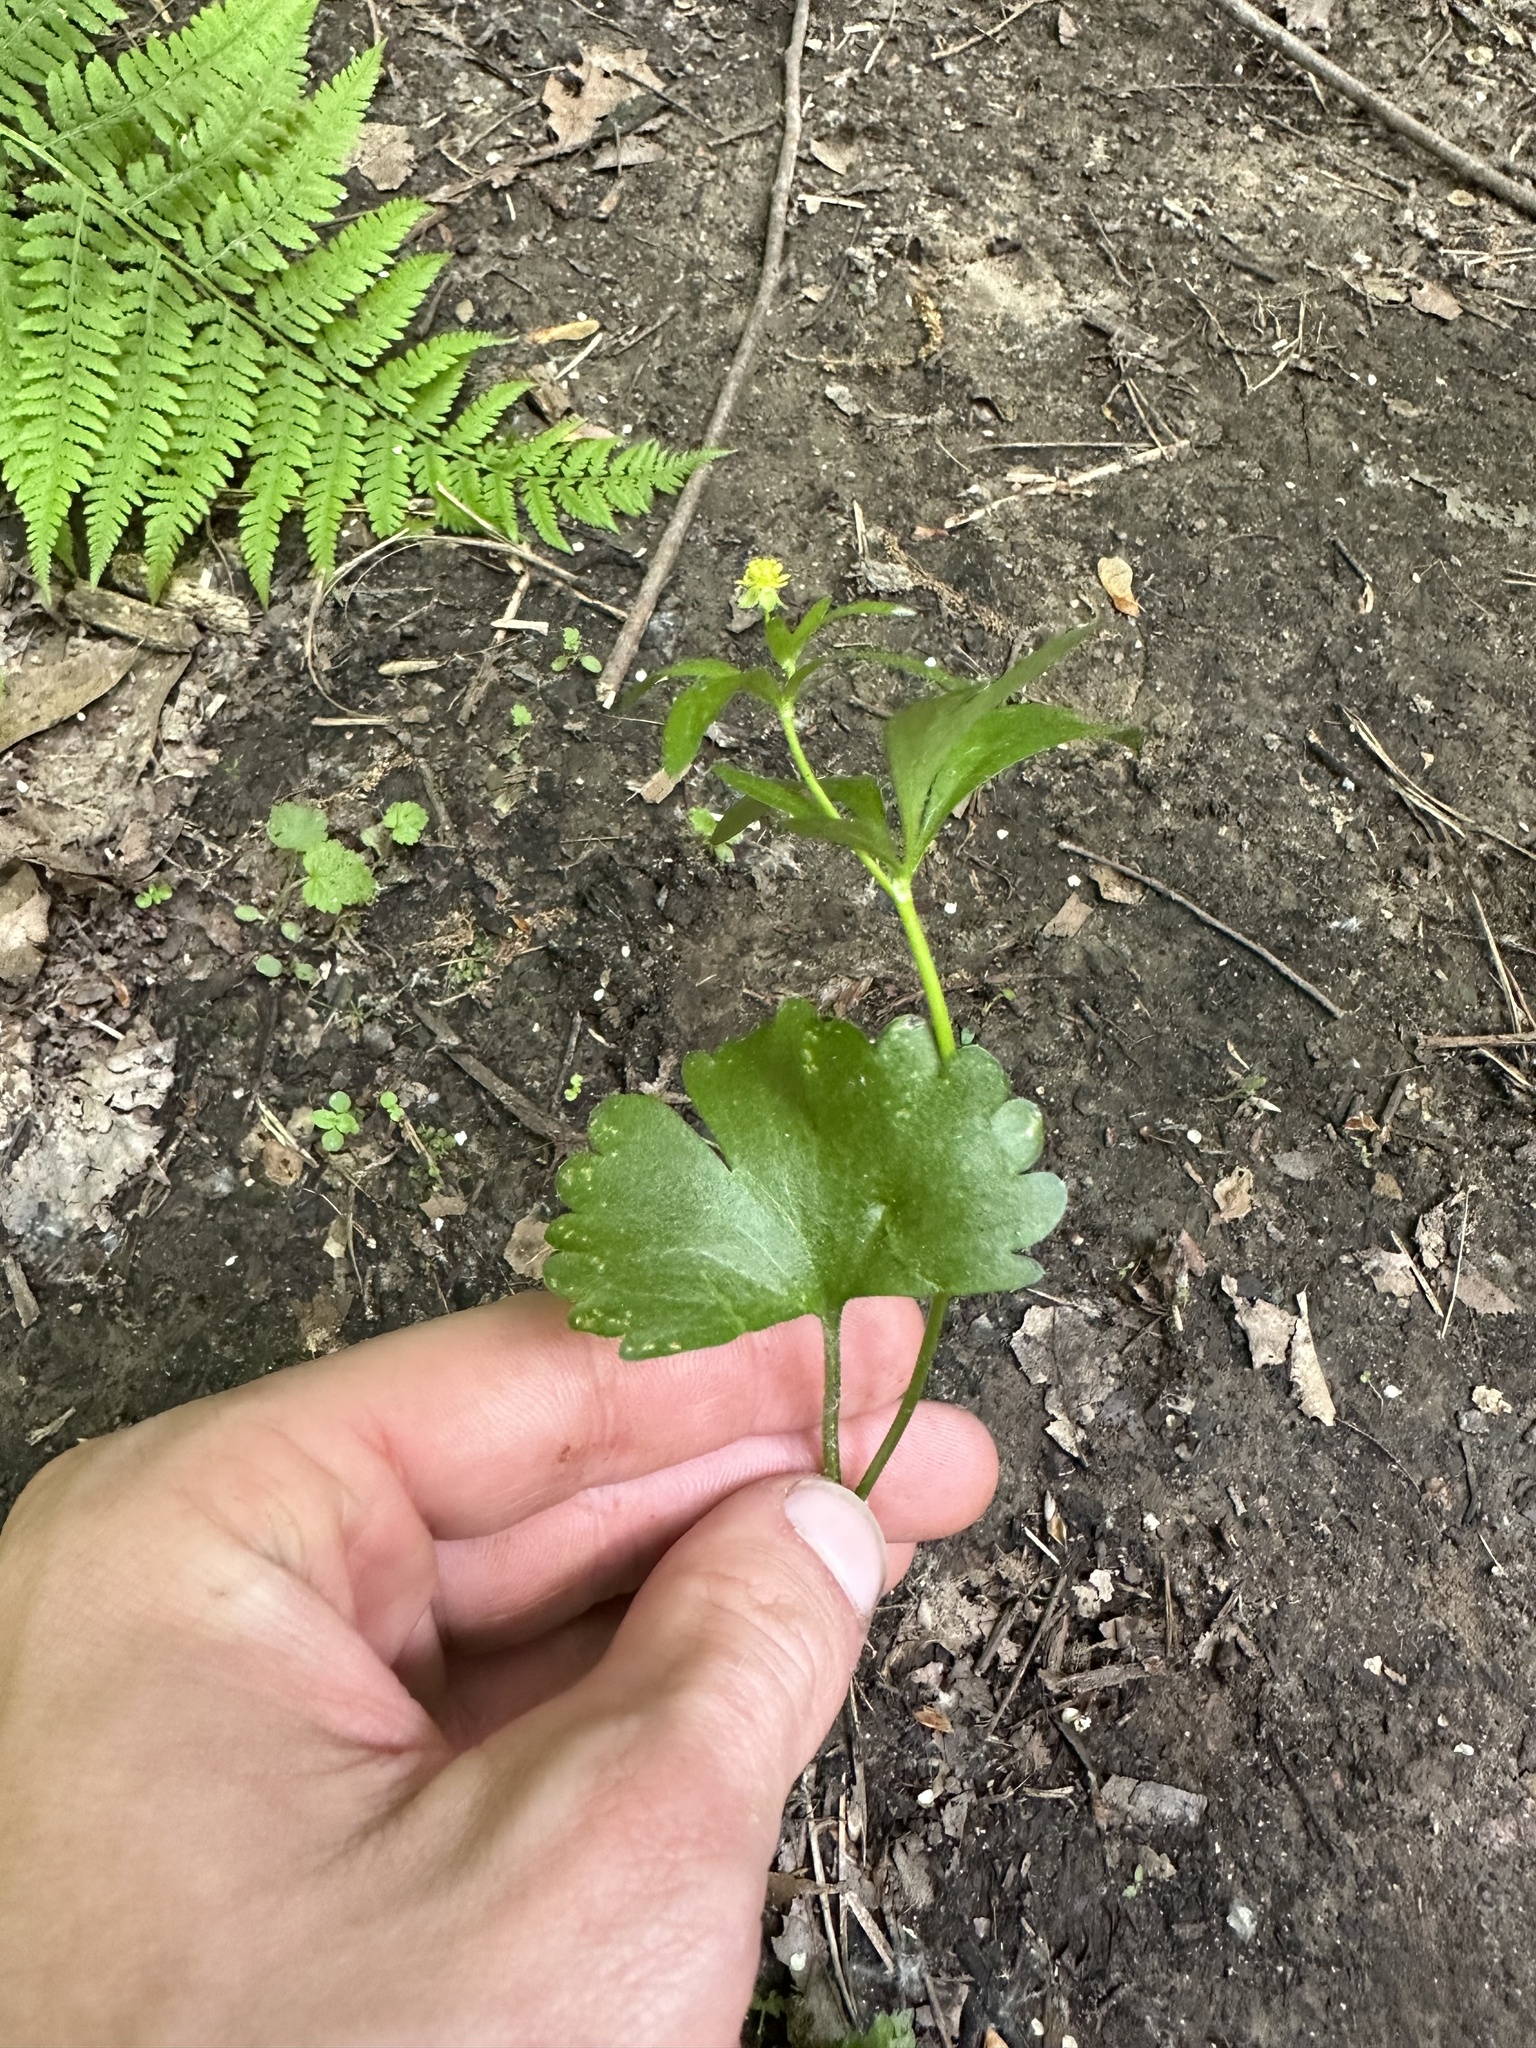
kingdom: Plantae
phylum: Tracheophyta
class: Magnoliopsida
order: Ranunculales
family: Ranunculaceae
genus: Ranunculus
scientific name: Ranunculus abortivus
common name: Early wood buttercup
